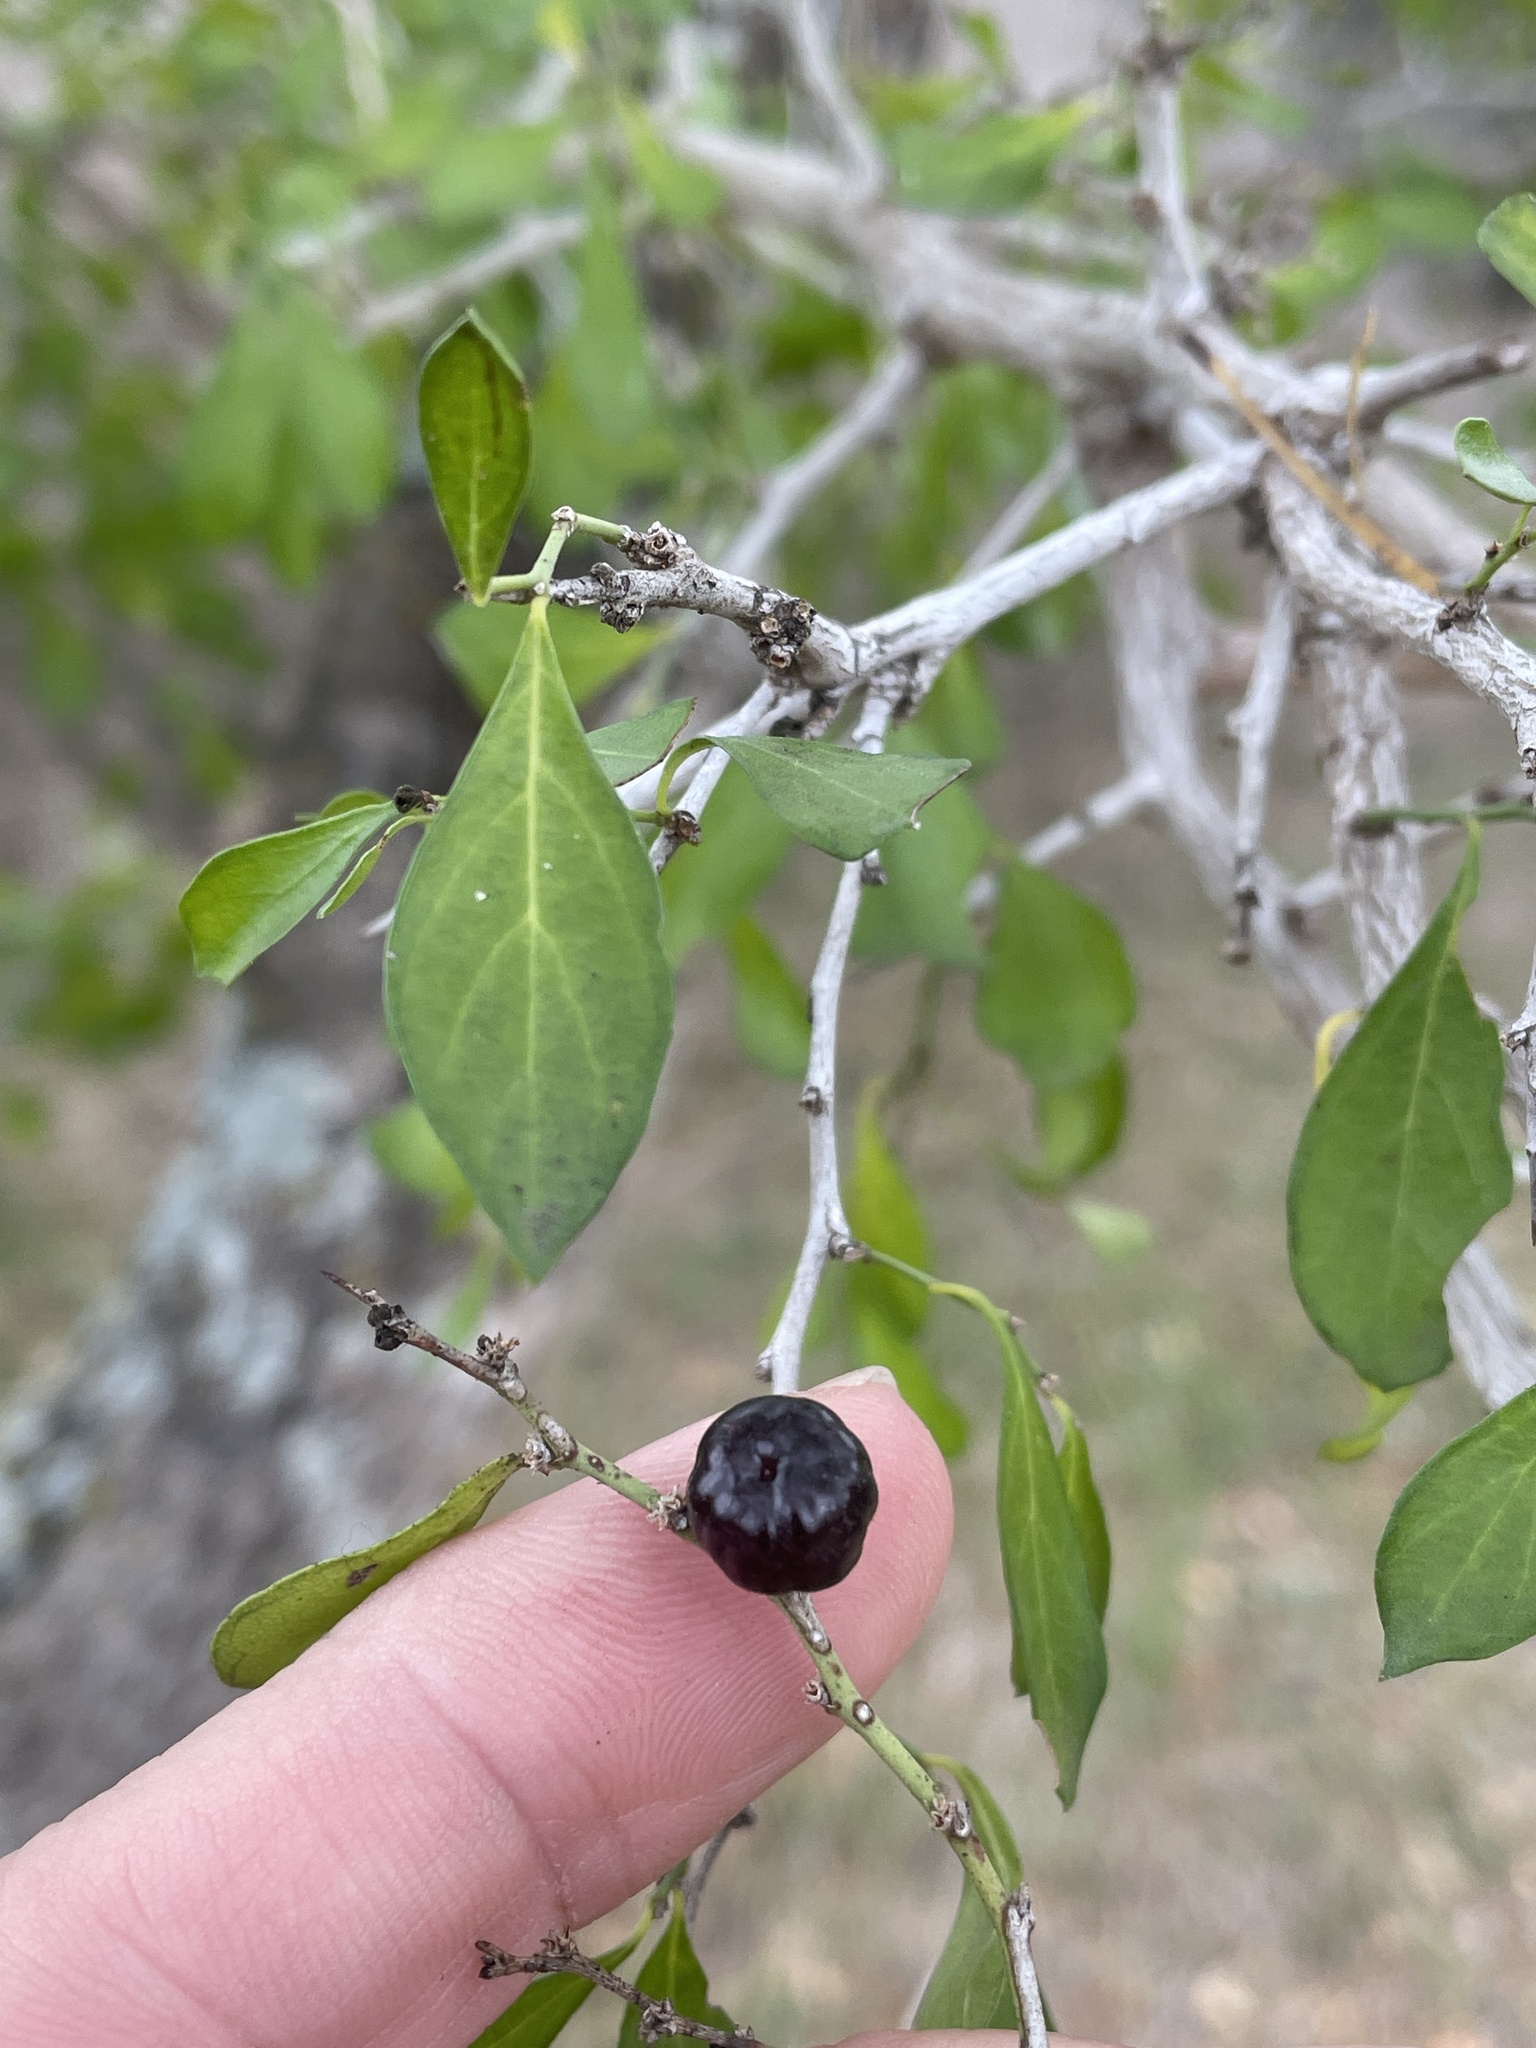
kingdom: Plantae
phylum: Tracheophyta
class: Magnoliopsida
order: Rosales
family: Rhamnaceae
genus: Condalia
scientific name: Condalia hookeri
